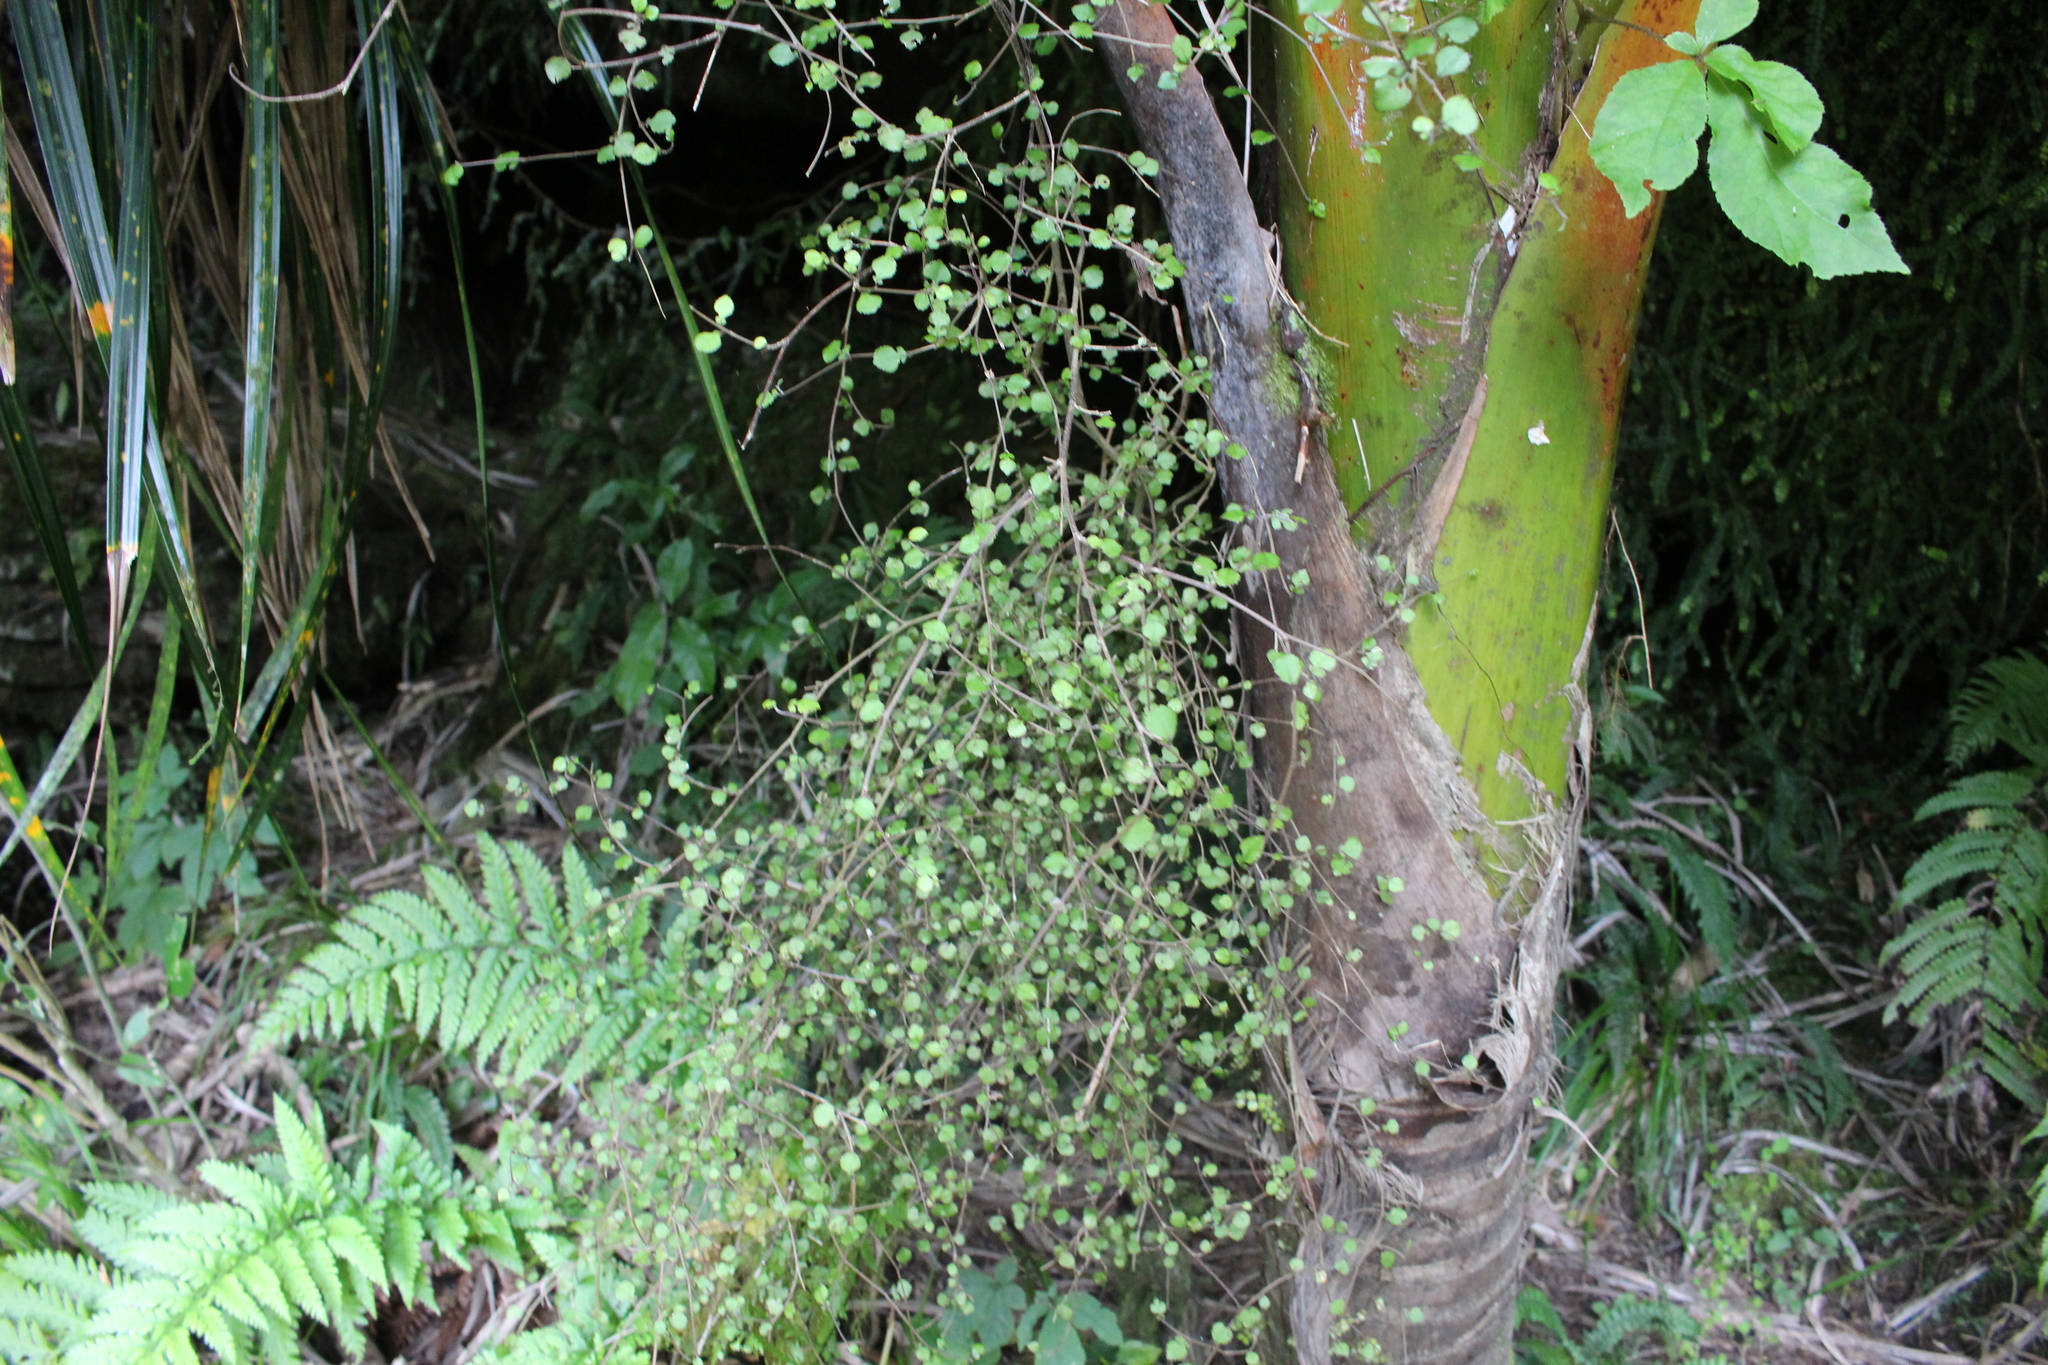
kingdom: Plantae
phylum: Tracheophyta
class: Magnoliopsida
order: Rosales
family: Moraceae
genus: Paratrophis
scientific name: Paratrophis microphylla
